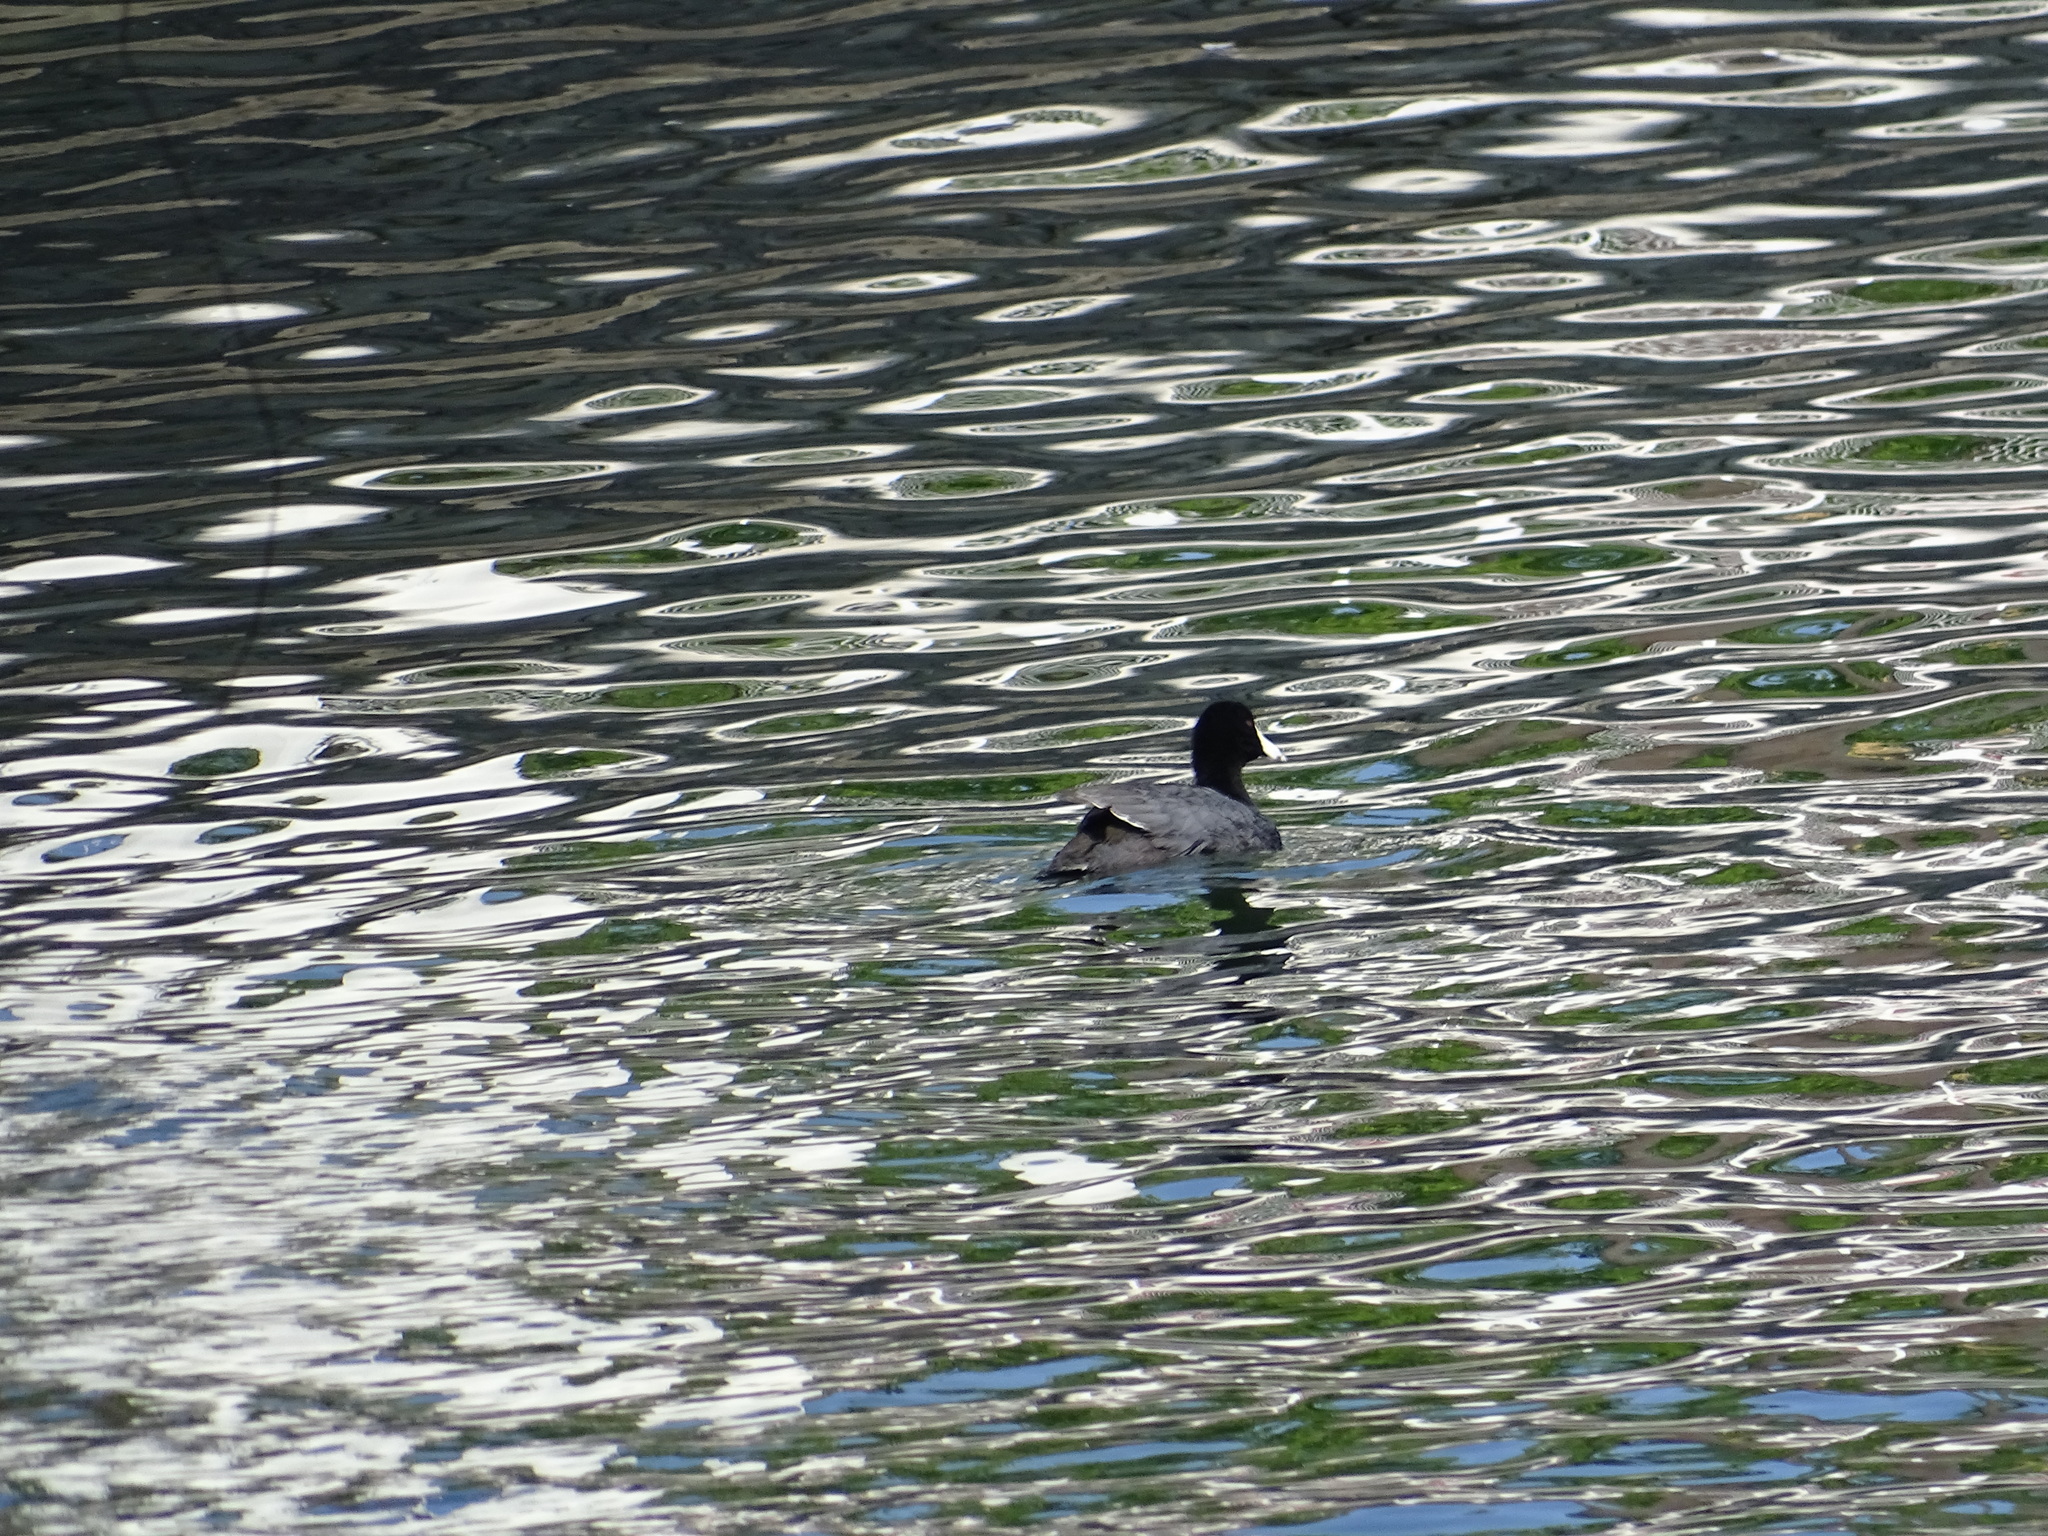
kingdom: Animalia
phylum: Chordata
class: Aves
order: Gruiformes
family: Rallidae
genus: Fulica
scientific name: Fulica americana
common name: American coot
